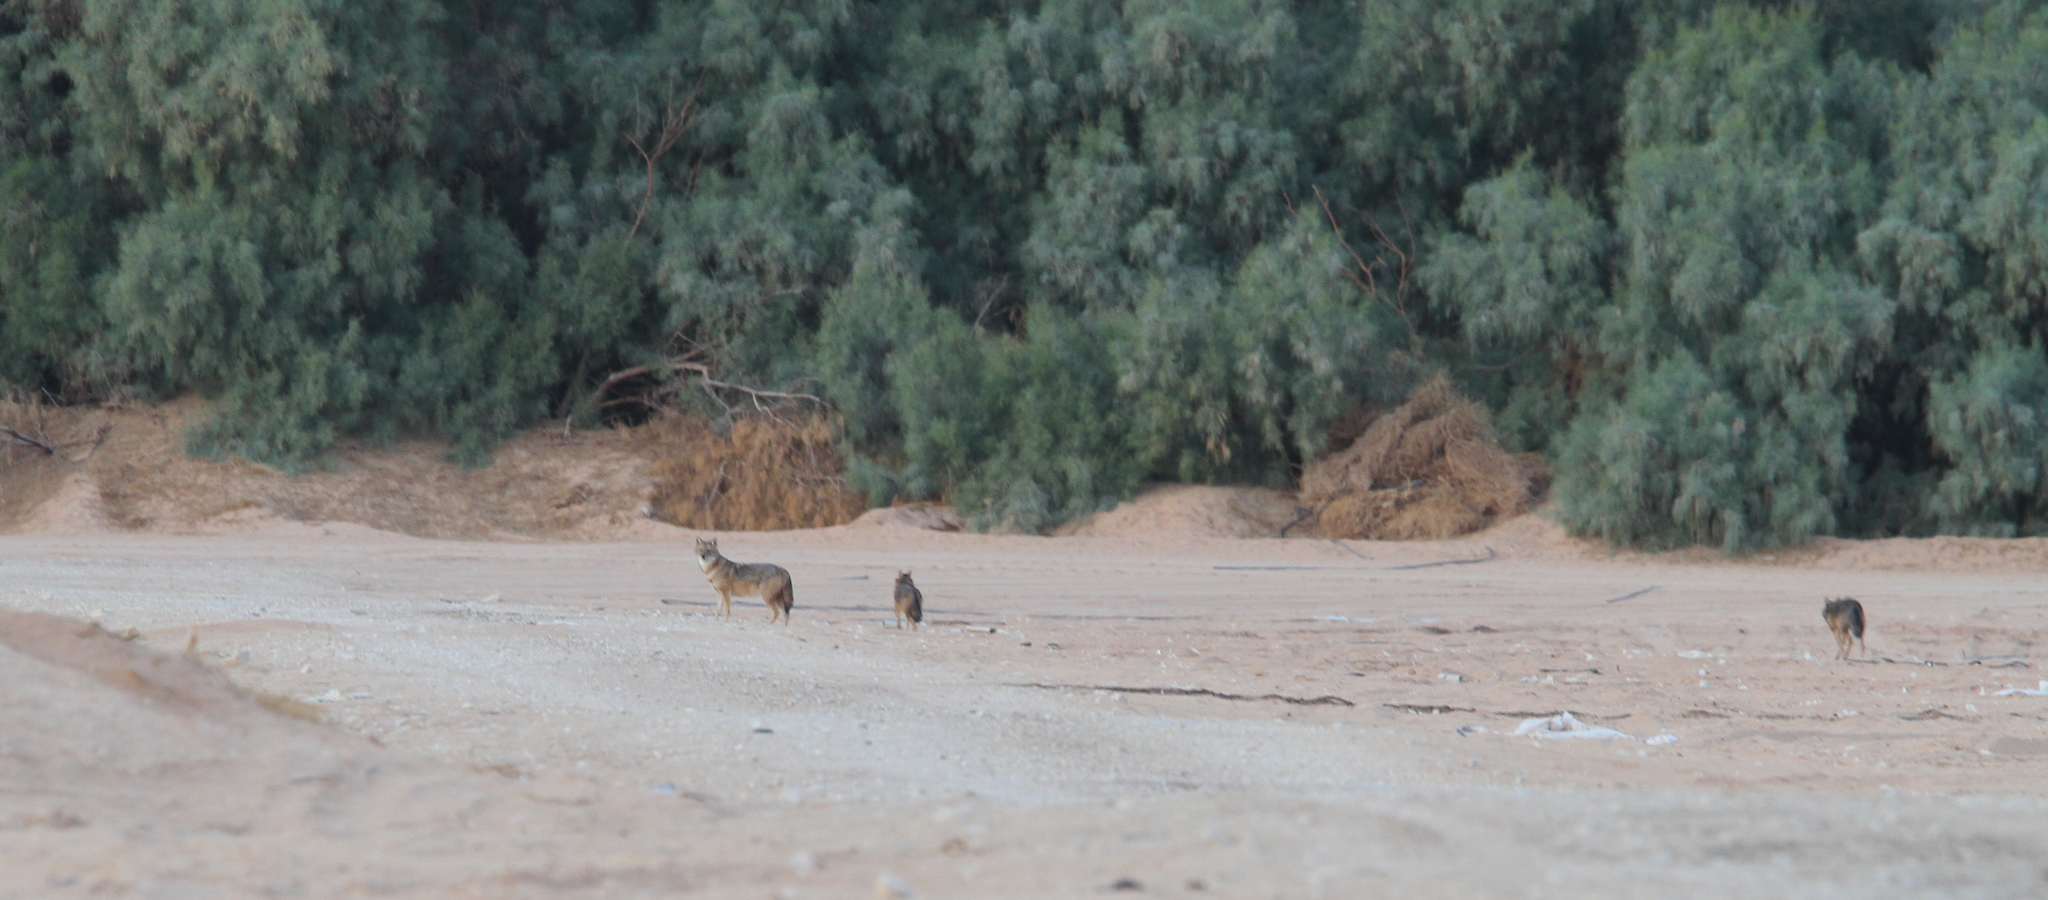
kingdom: Animalia
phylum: Chordata
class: Mammalia
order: Carnivora
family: Canidae
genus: Canis
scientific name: Canis aureus
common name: Golden jackal
